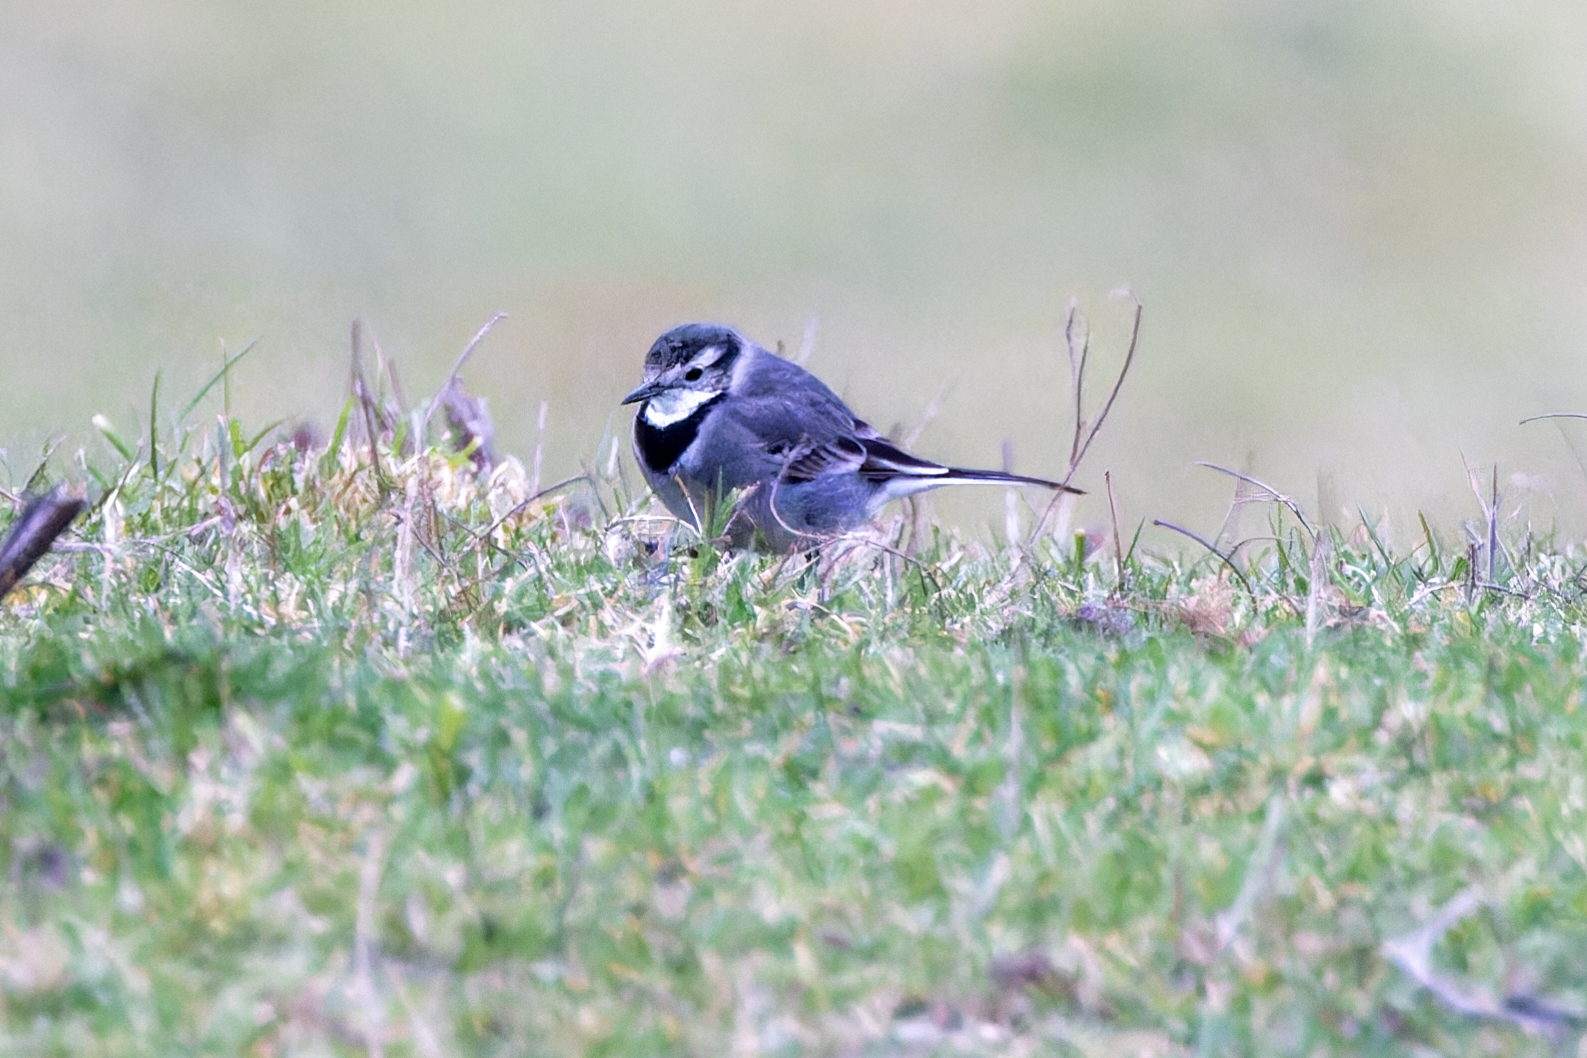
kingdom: Animalia
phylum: Chordata
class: Aves
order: Passeriformes
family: Motacillidae
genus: Motacilla
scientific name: Motacilla alba
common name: White wagtail
